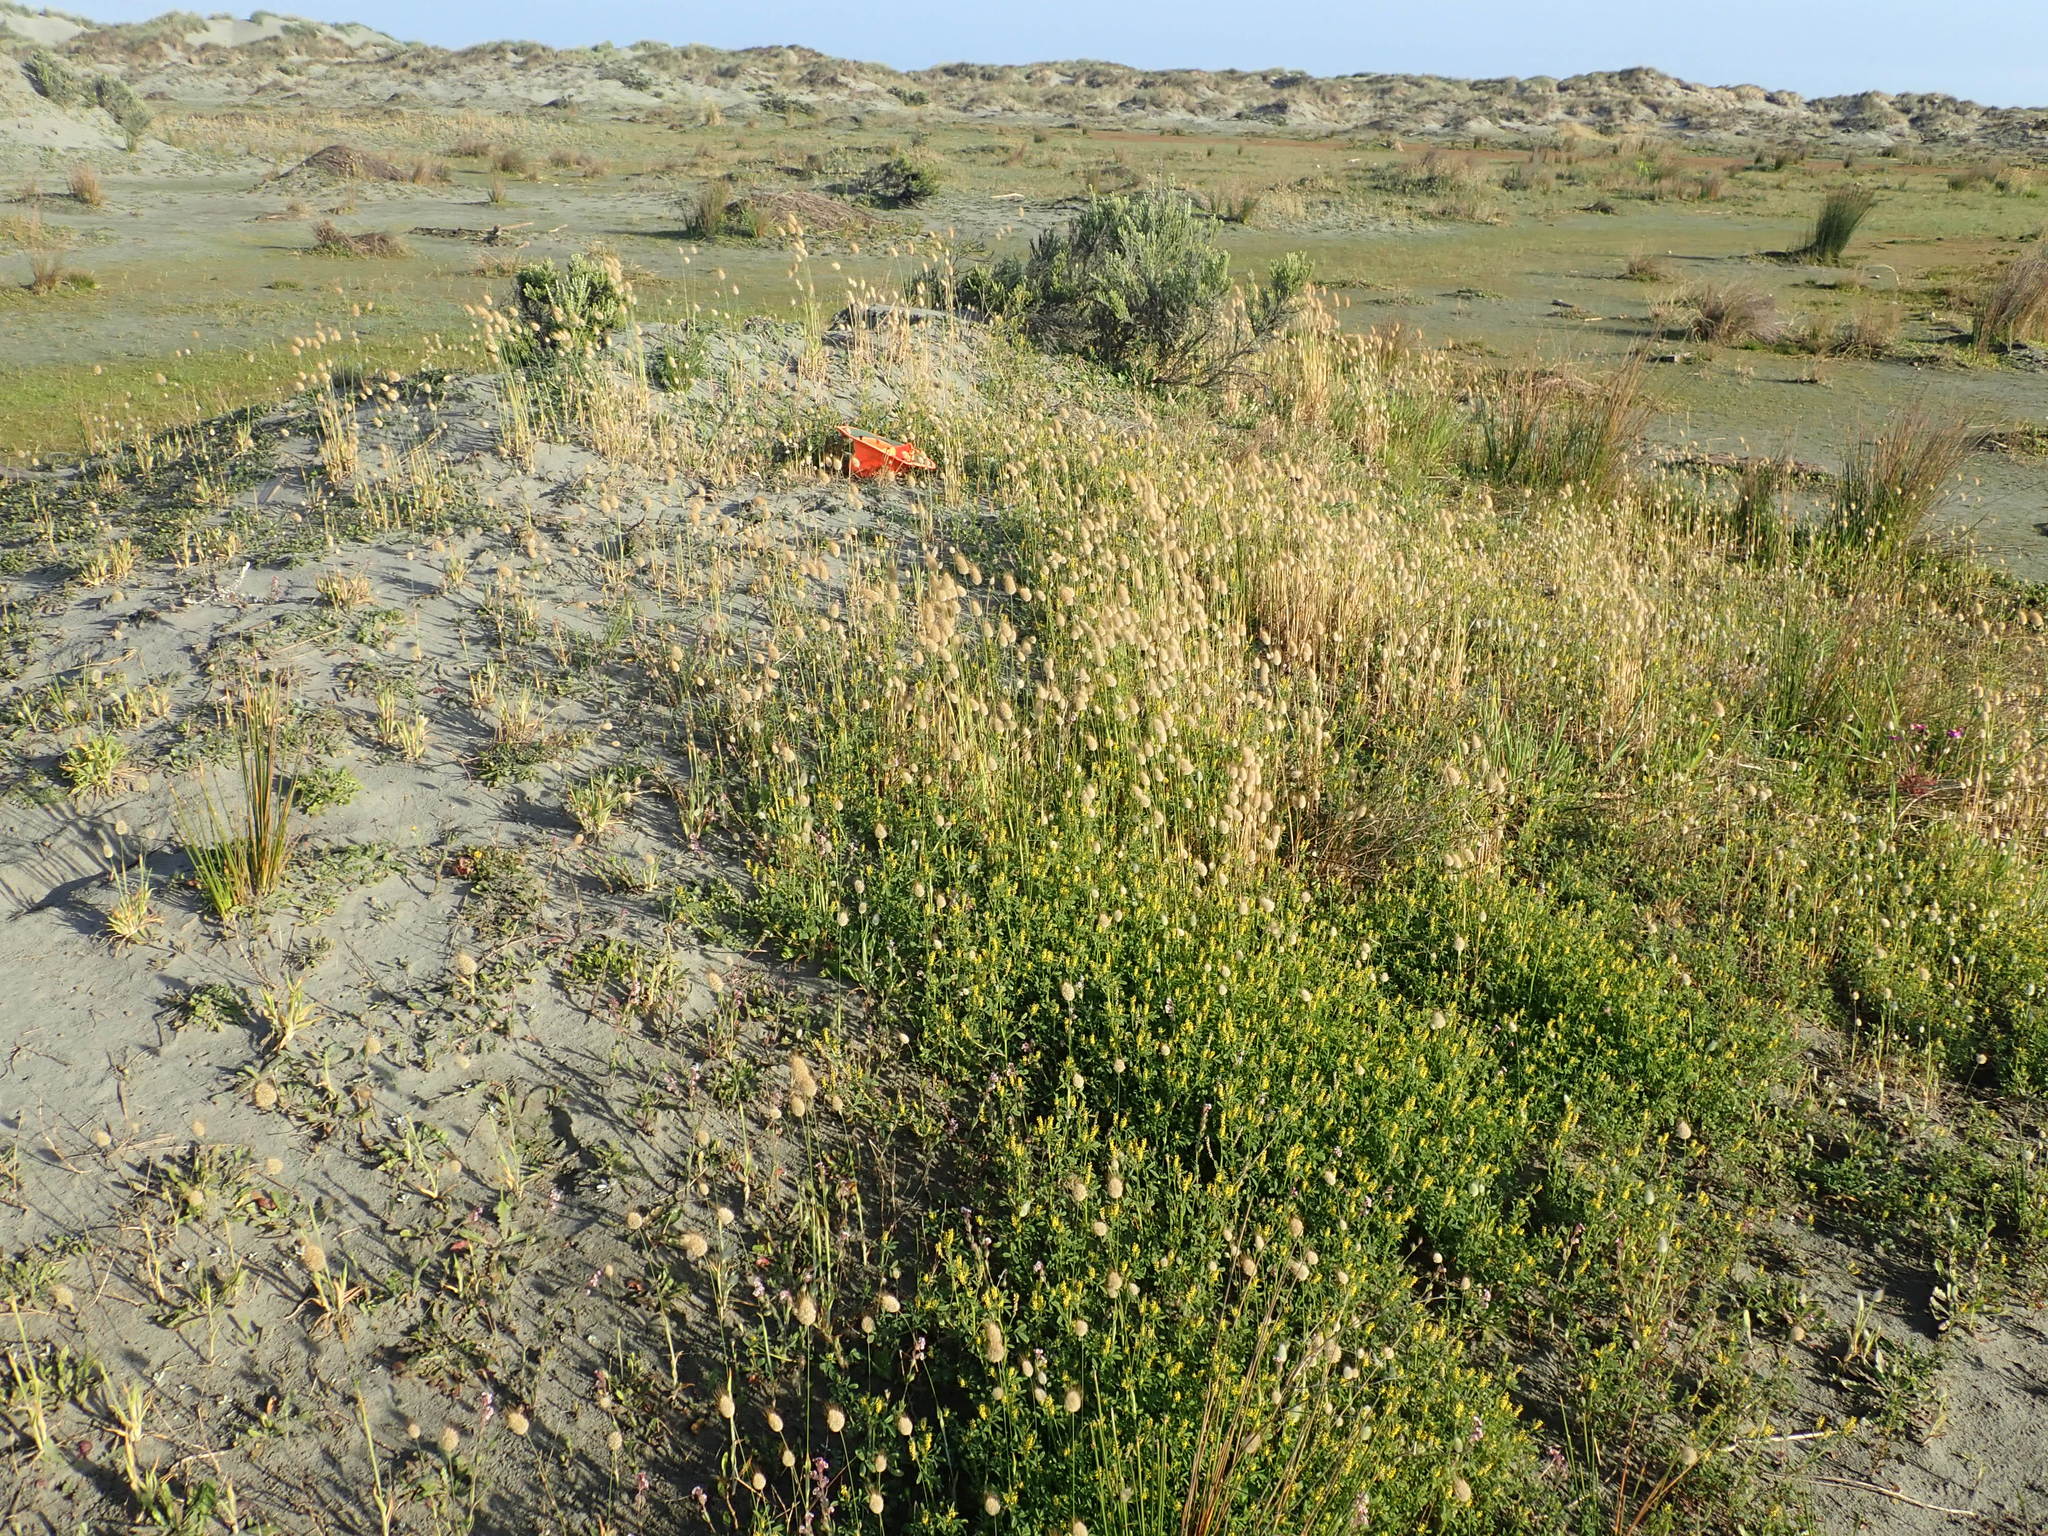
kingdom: Plantae
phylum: Tracheophyta
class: Magnoliopsida
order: Caryophyllales
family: Caryophyllaceae
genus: Silene
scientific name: Silene gallica
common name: Small-flowered catchfly
